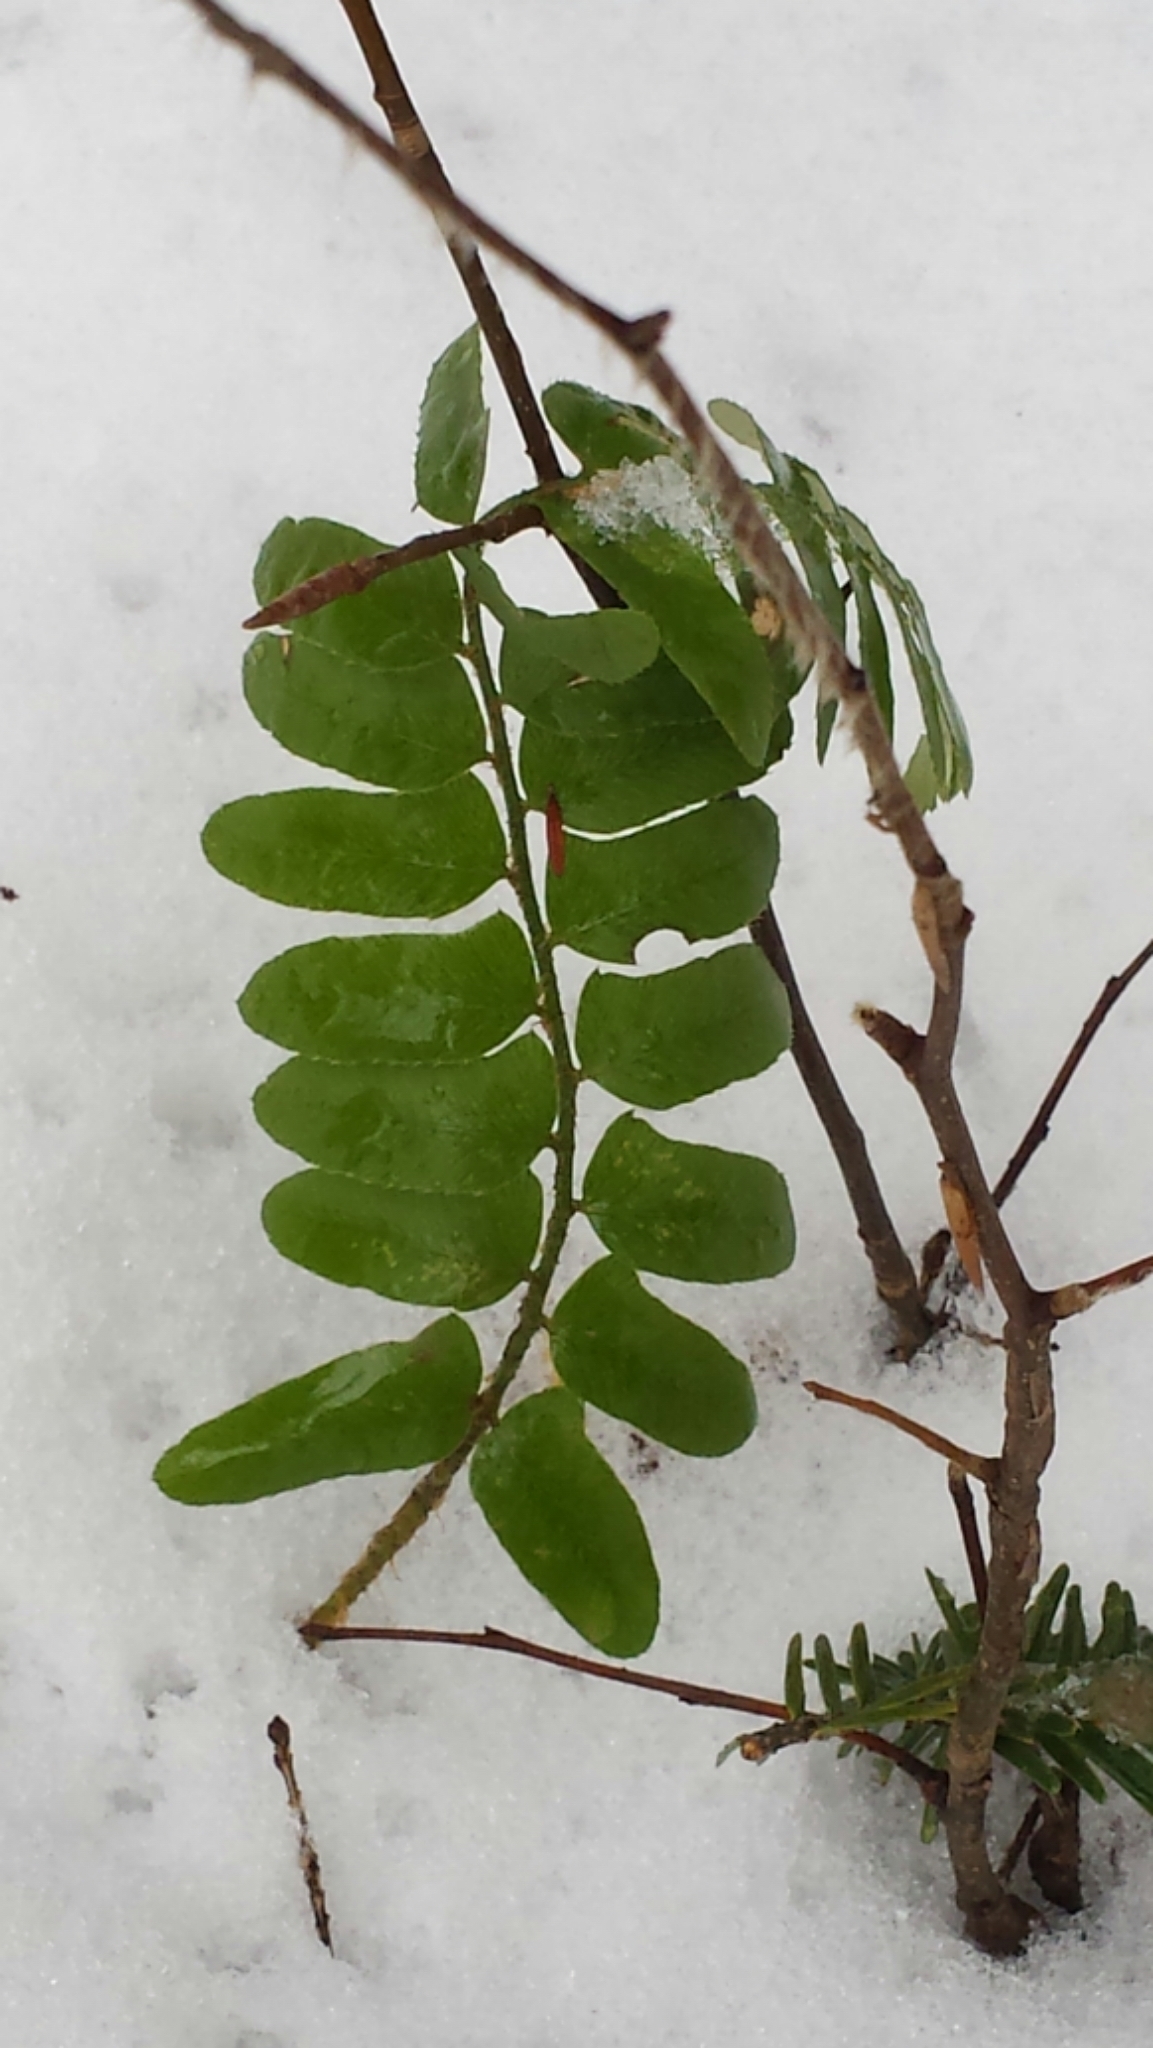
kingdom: Plantae
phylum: Tracheophyta
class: Polypodiopsida
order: Polypodiales
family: Dryopteridaceae
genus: Polystichum
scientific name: Polystichum acrostichoides
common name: Christmas fern
